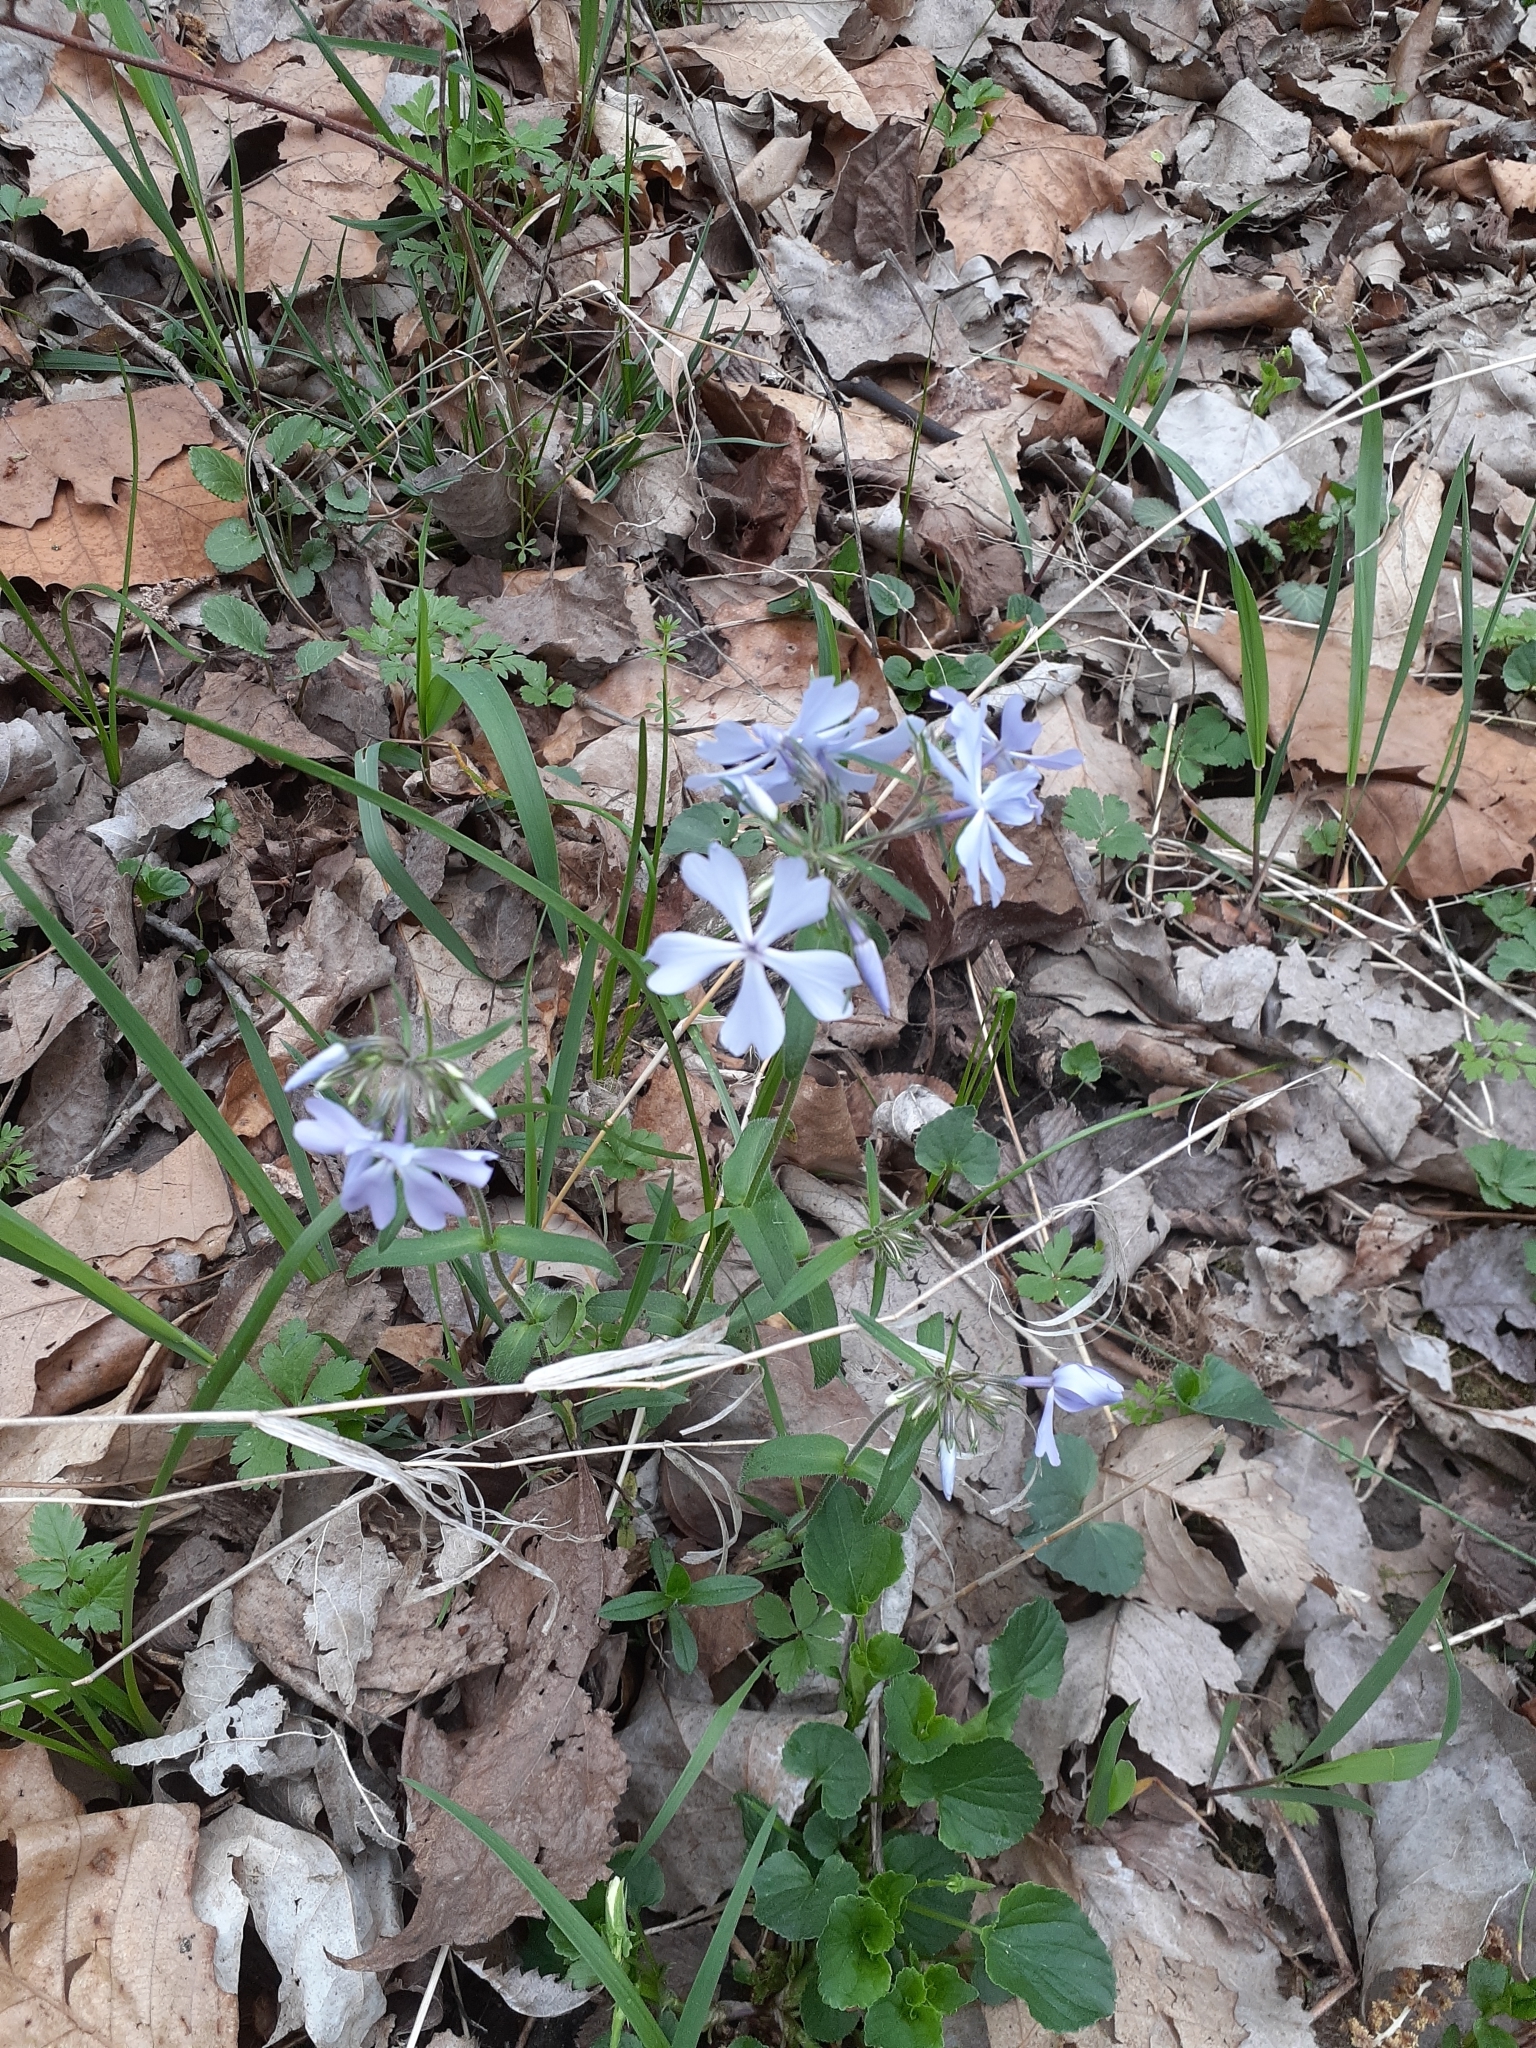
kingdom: Plantae
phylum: Tracheophyta
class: Magnoliopsida
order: Ericales
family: Polemoniaceae
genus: Phlox
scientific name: Phlox divaricata
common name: Blue phlox
